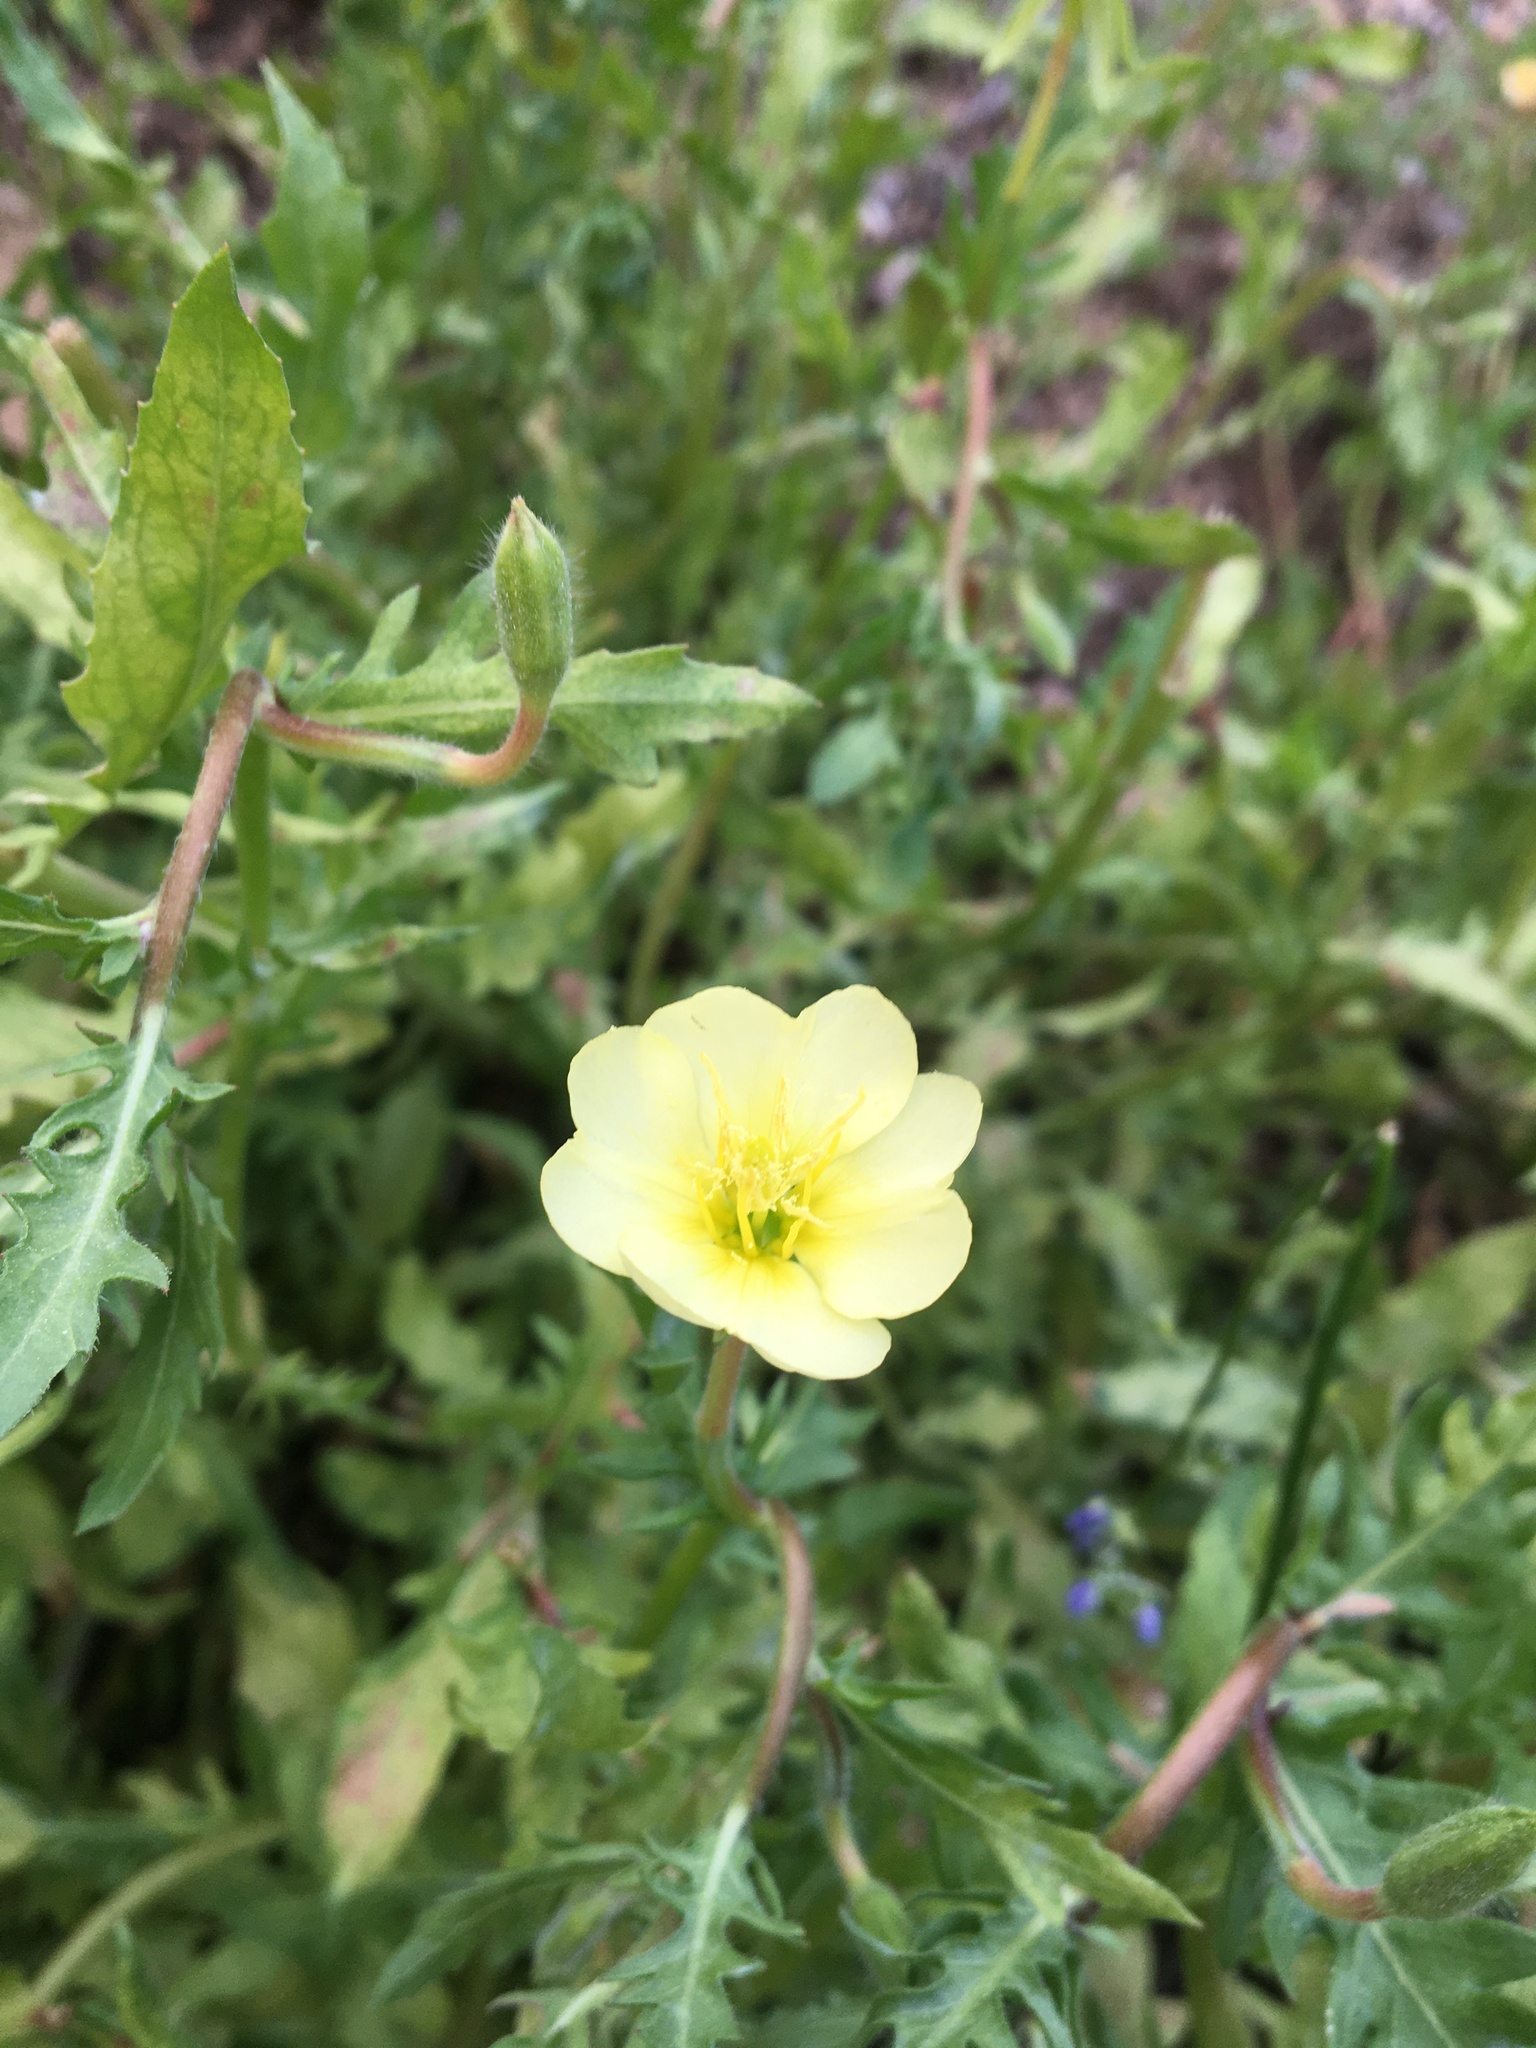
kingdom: Plantae
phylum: Tracheophyta
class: Magnoliopsida
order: Myrtales
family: Onagraceae
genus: Oenothera
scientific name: Oenothera laciniata
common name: Cut-leaved evening-primrose
